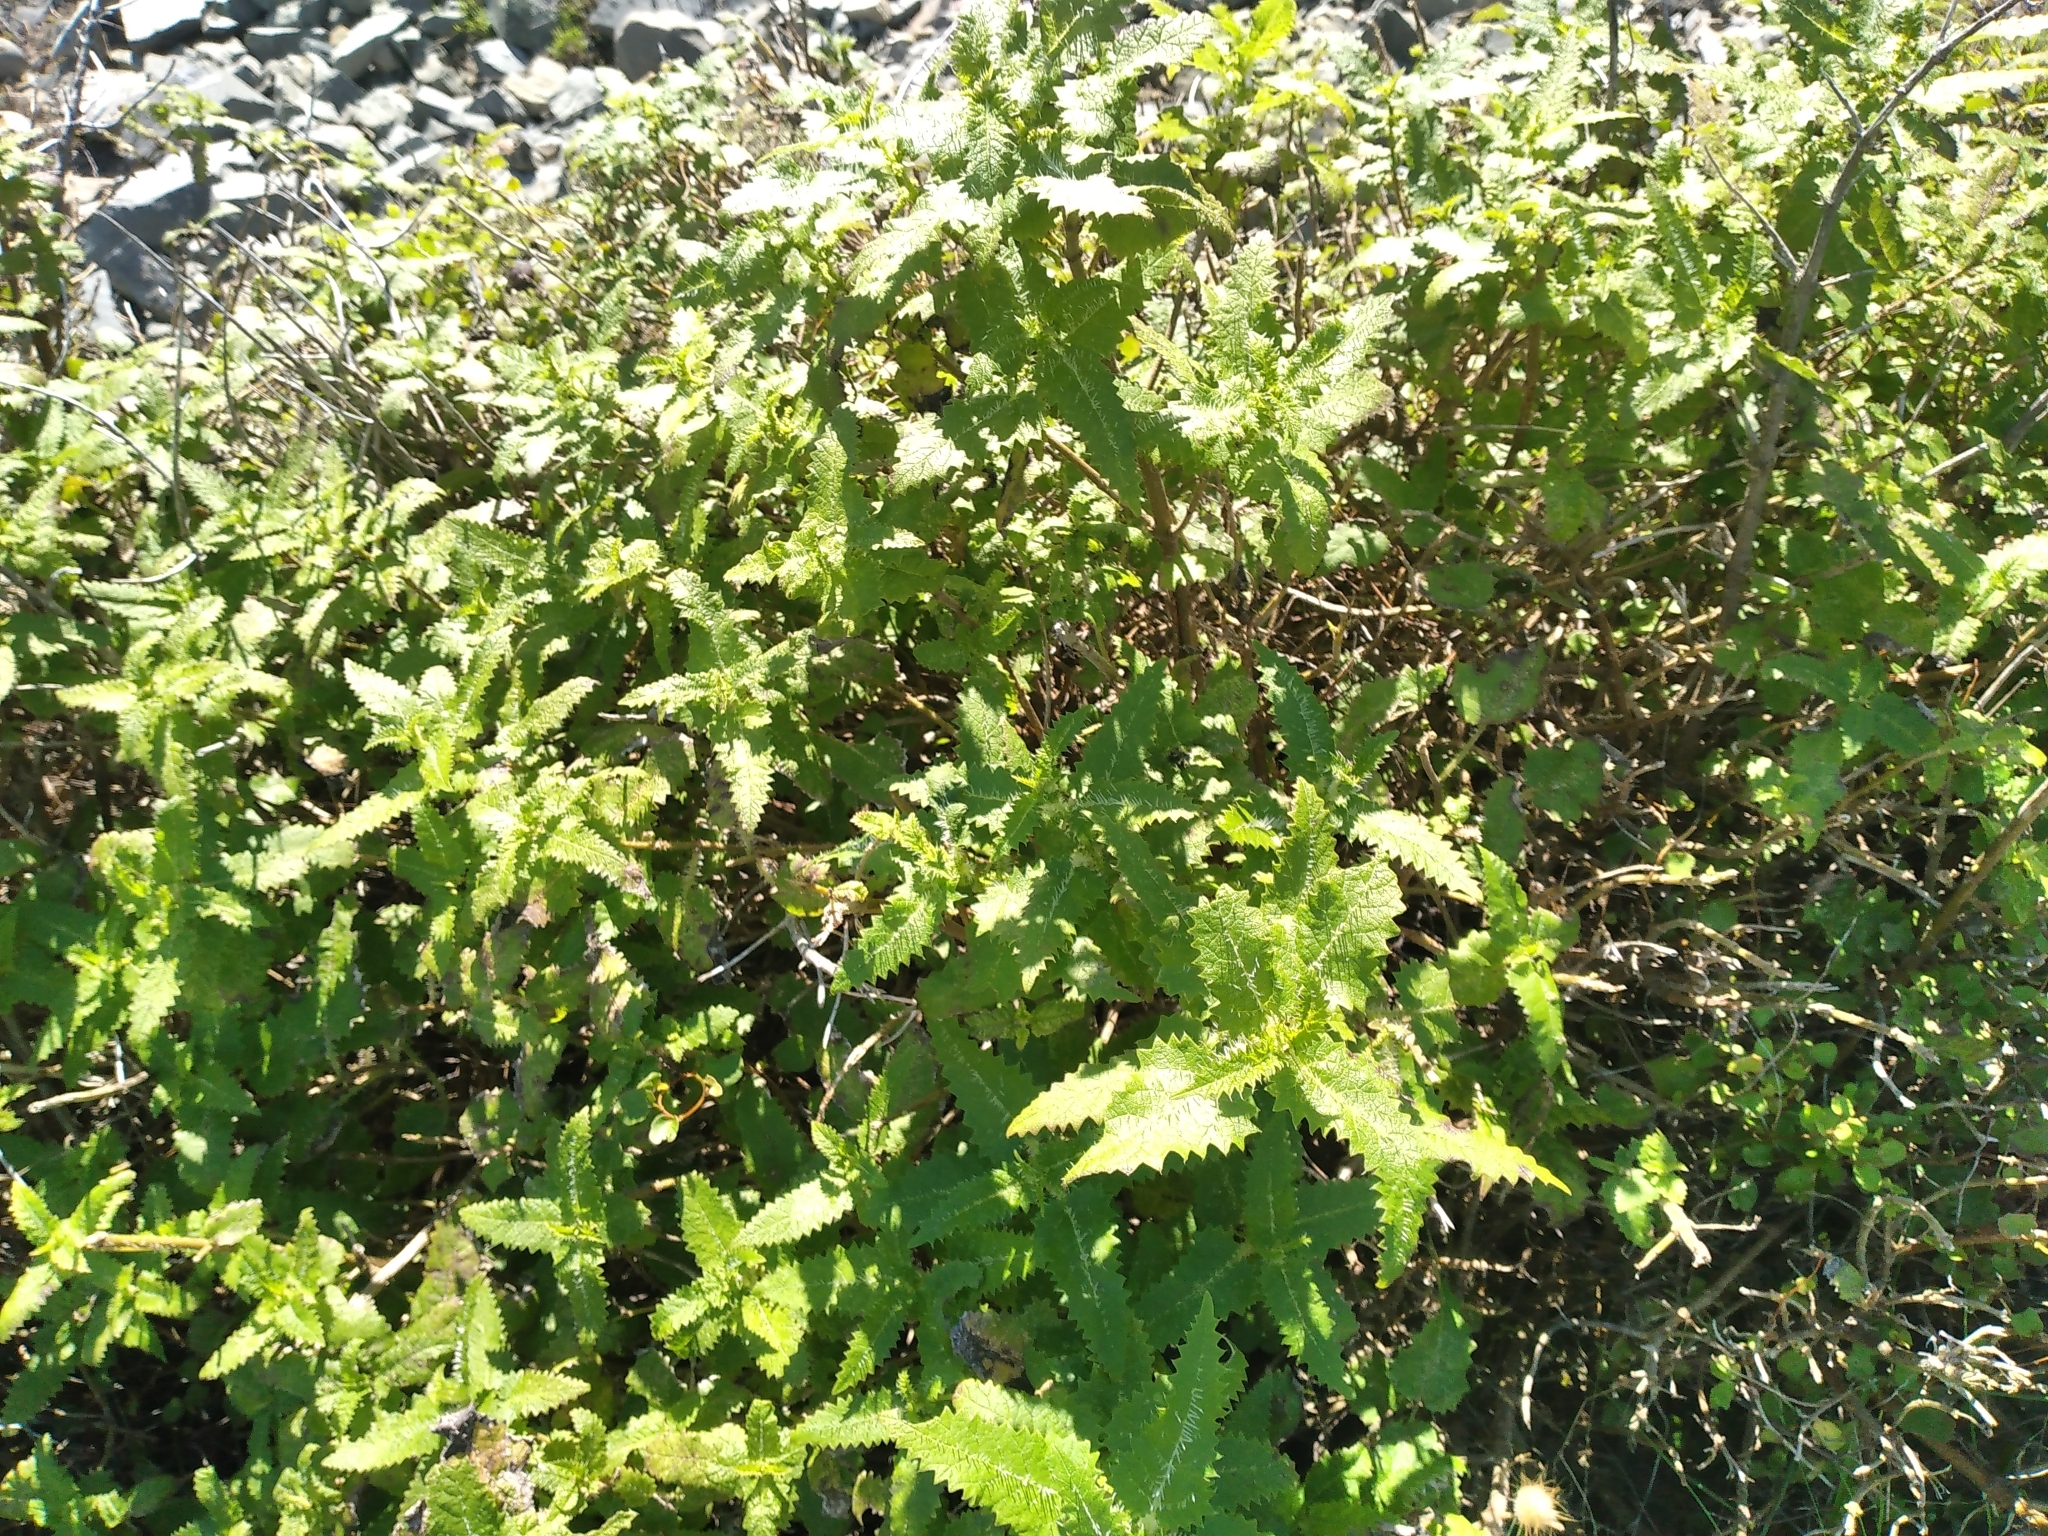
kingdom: Plantae
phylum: Tracheophyta
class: Magnoliopsida
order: Rosales
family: Urticaceae
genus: Urtica
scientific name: Urtica ferox
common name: Tree nettle
